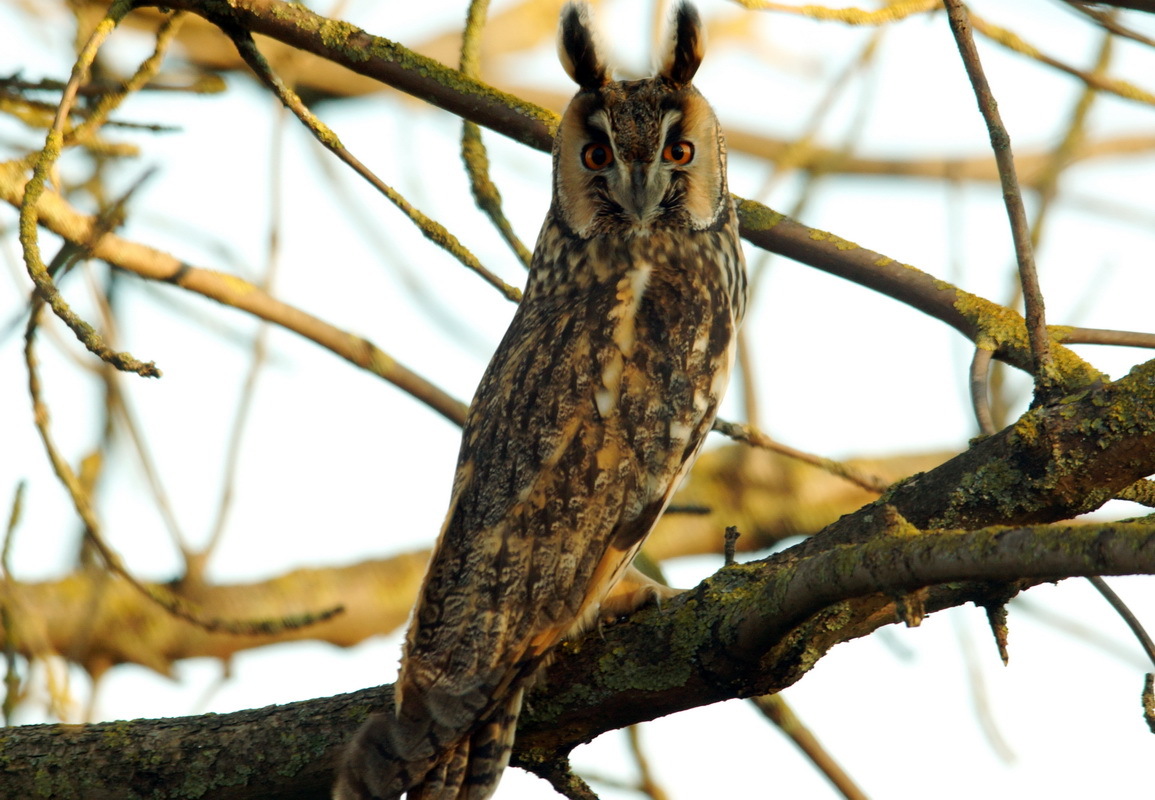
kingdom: Animalia
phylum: Chordata
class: Aves
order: Strigiformes
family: Strigidae
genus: Asio
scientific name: Asio otus
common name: Long-eared owl
